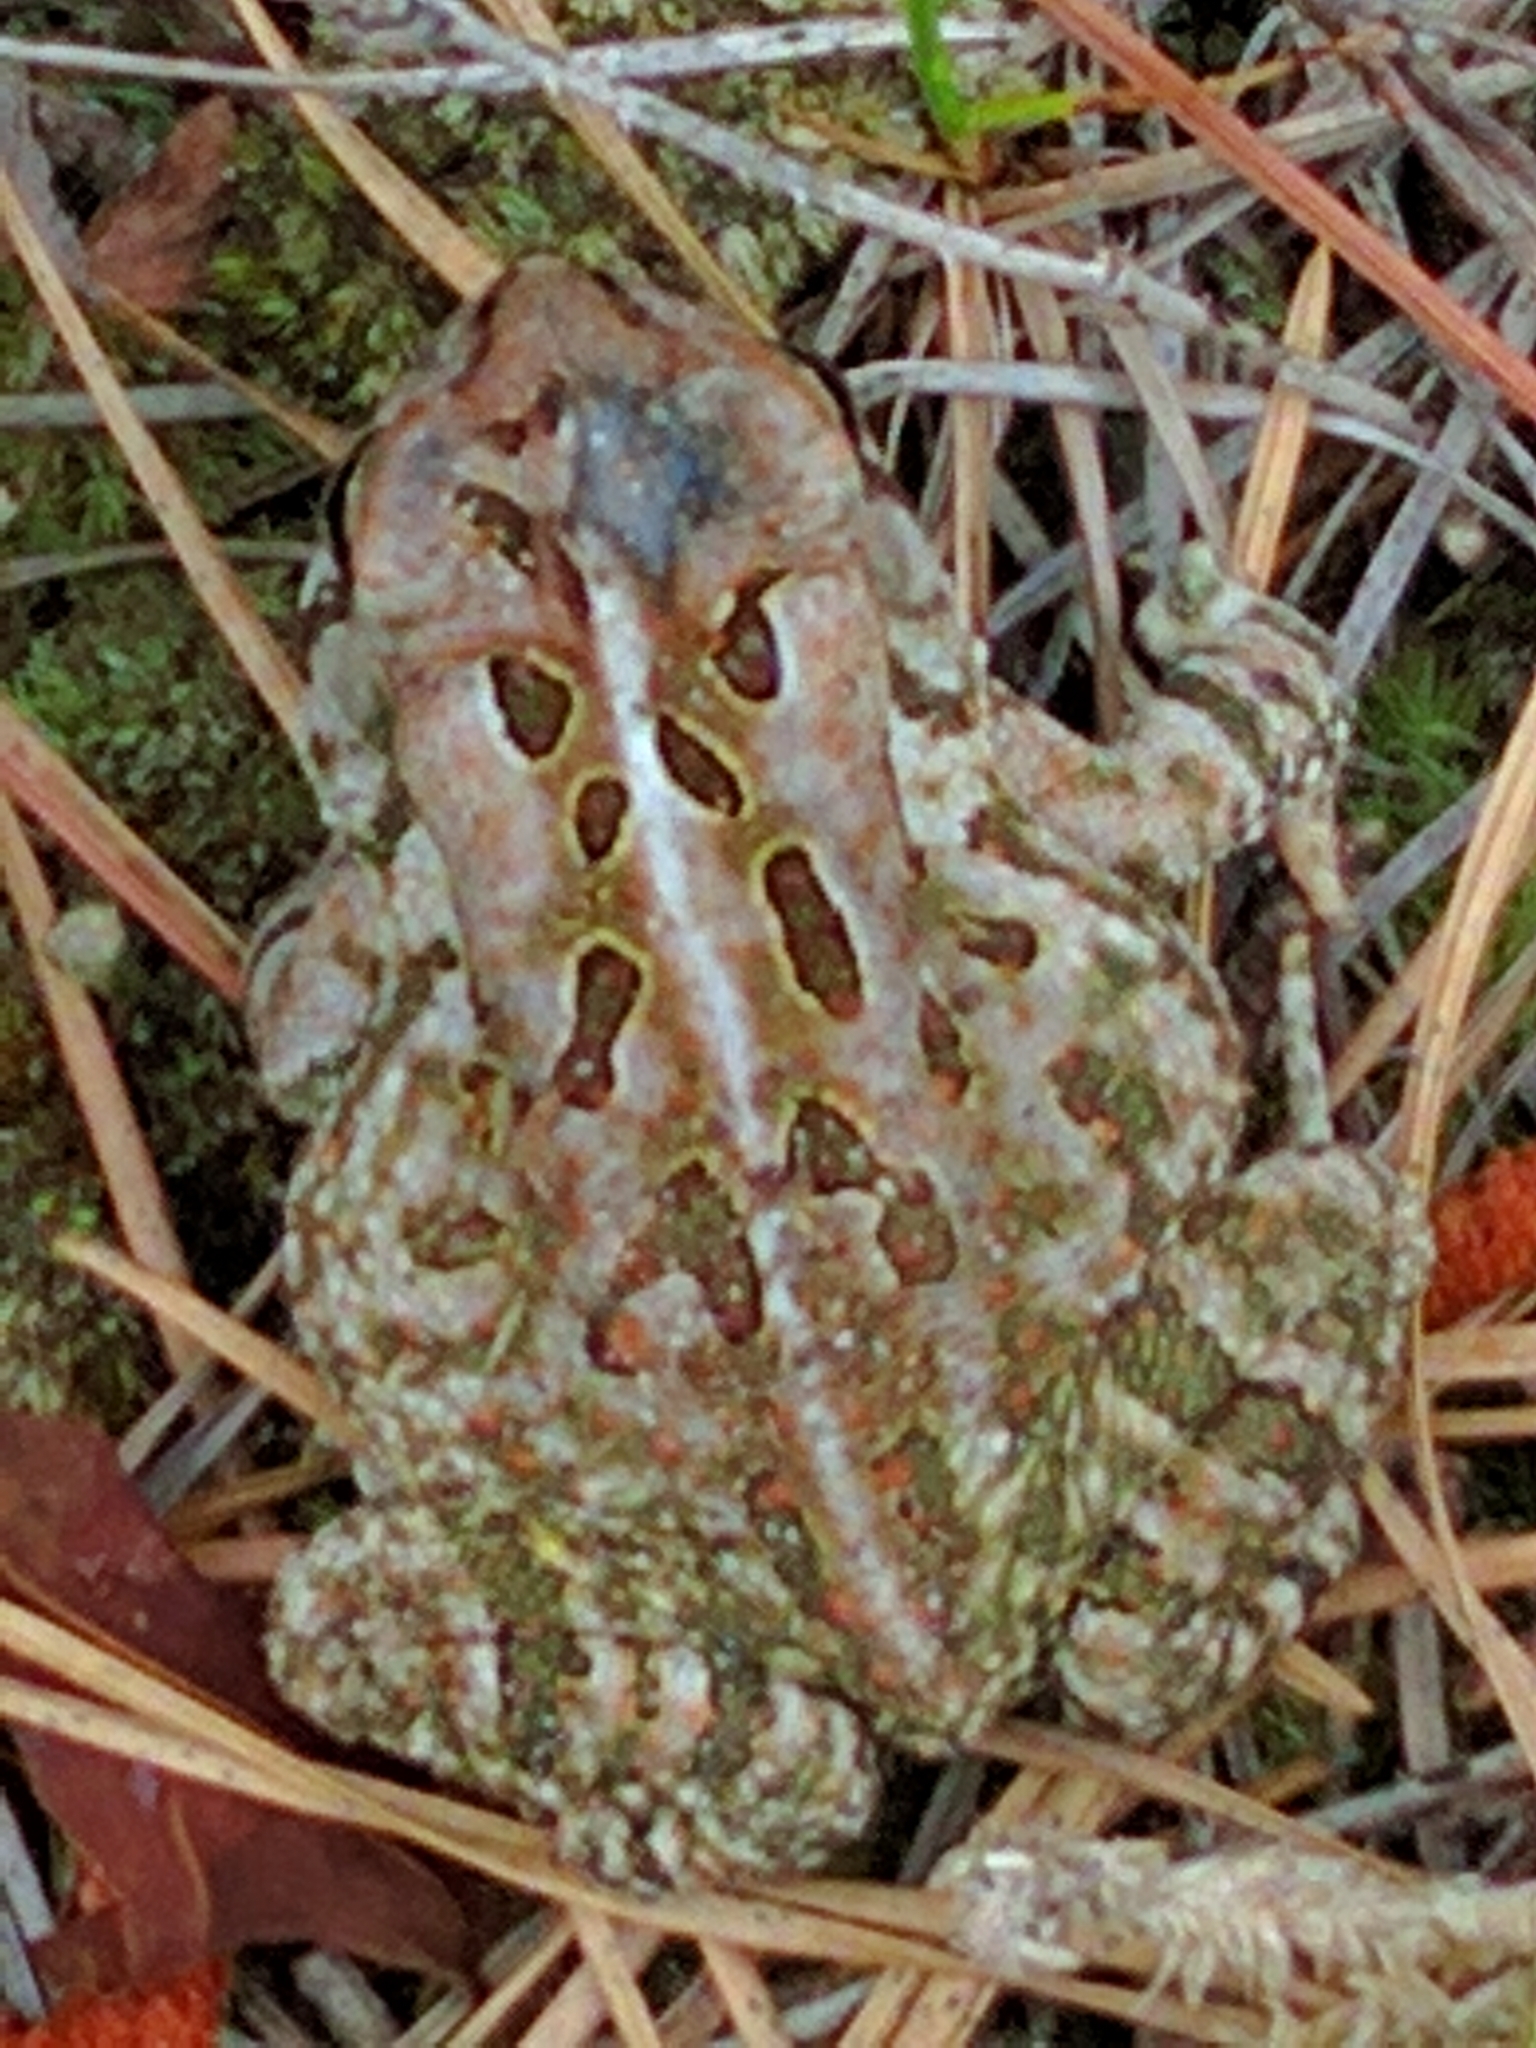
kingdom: Animalia
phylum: Chordata
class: Amphibia
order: Anura
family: Bufonidae
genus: Anaxyrus
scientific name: Anaxyrus fowleri
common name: Fowler's toad
